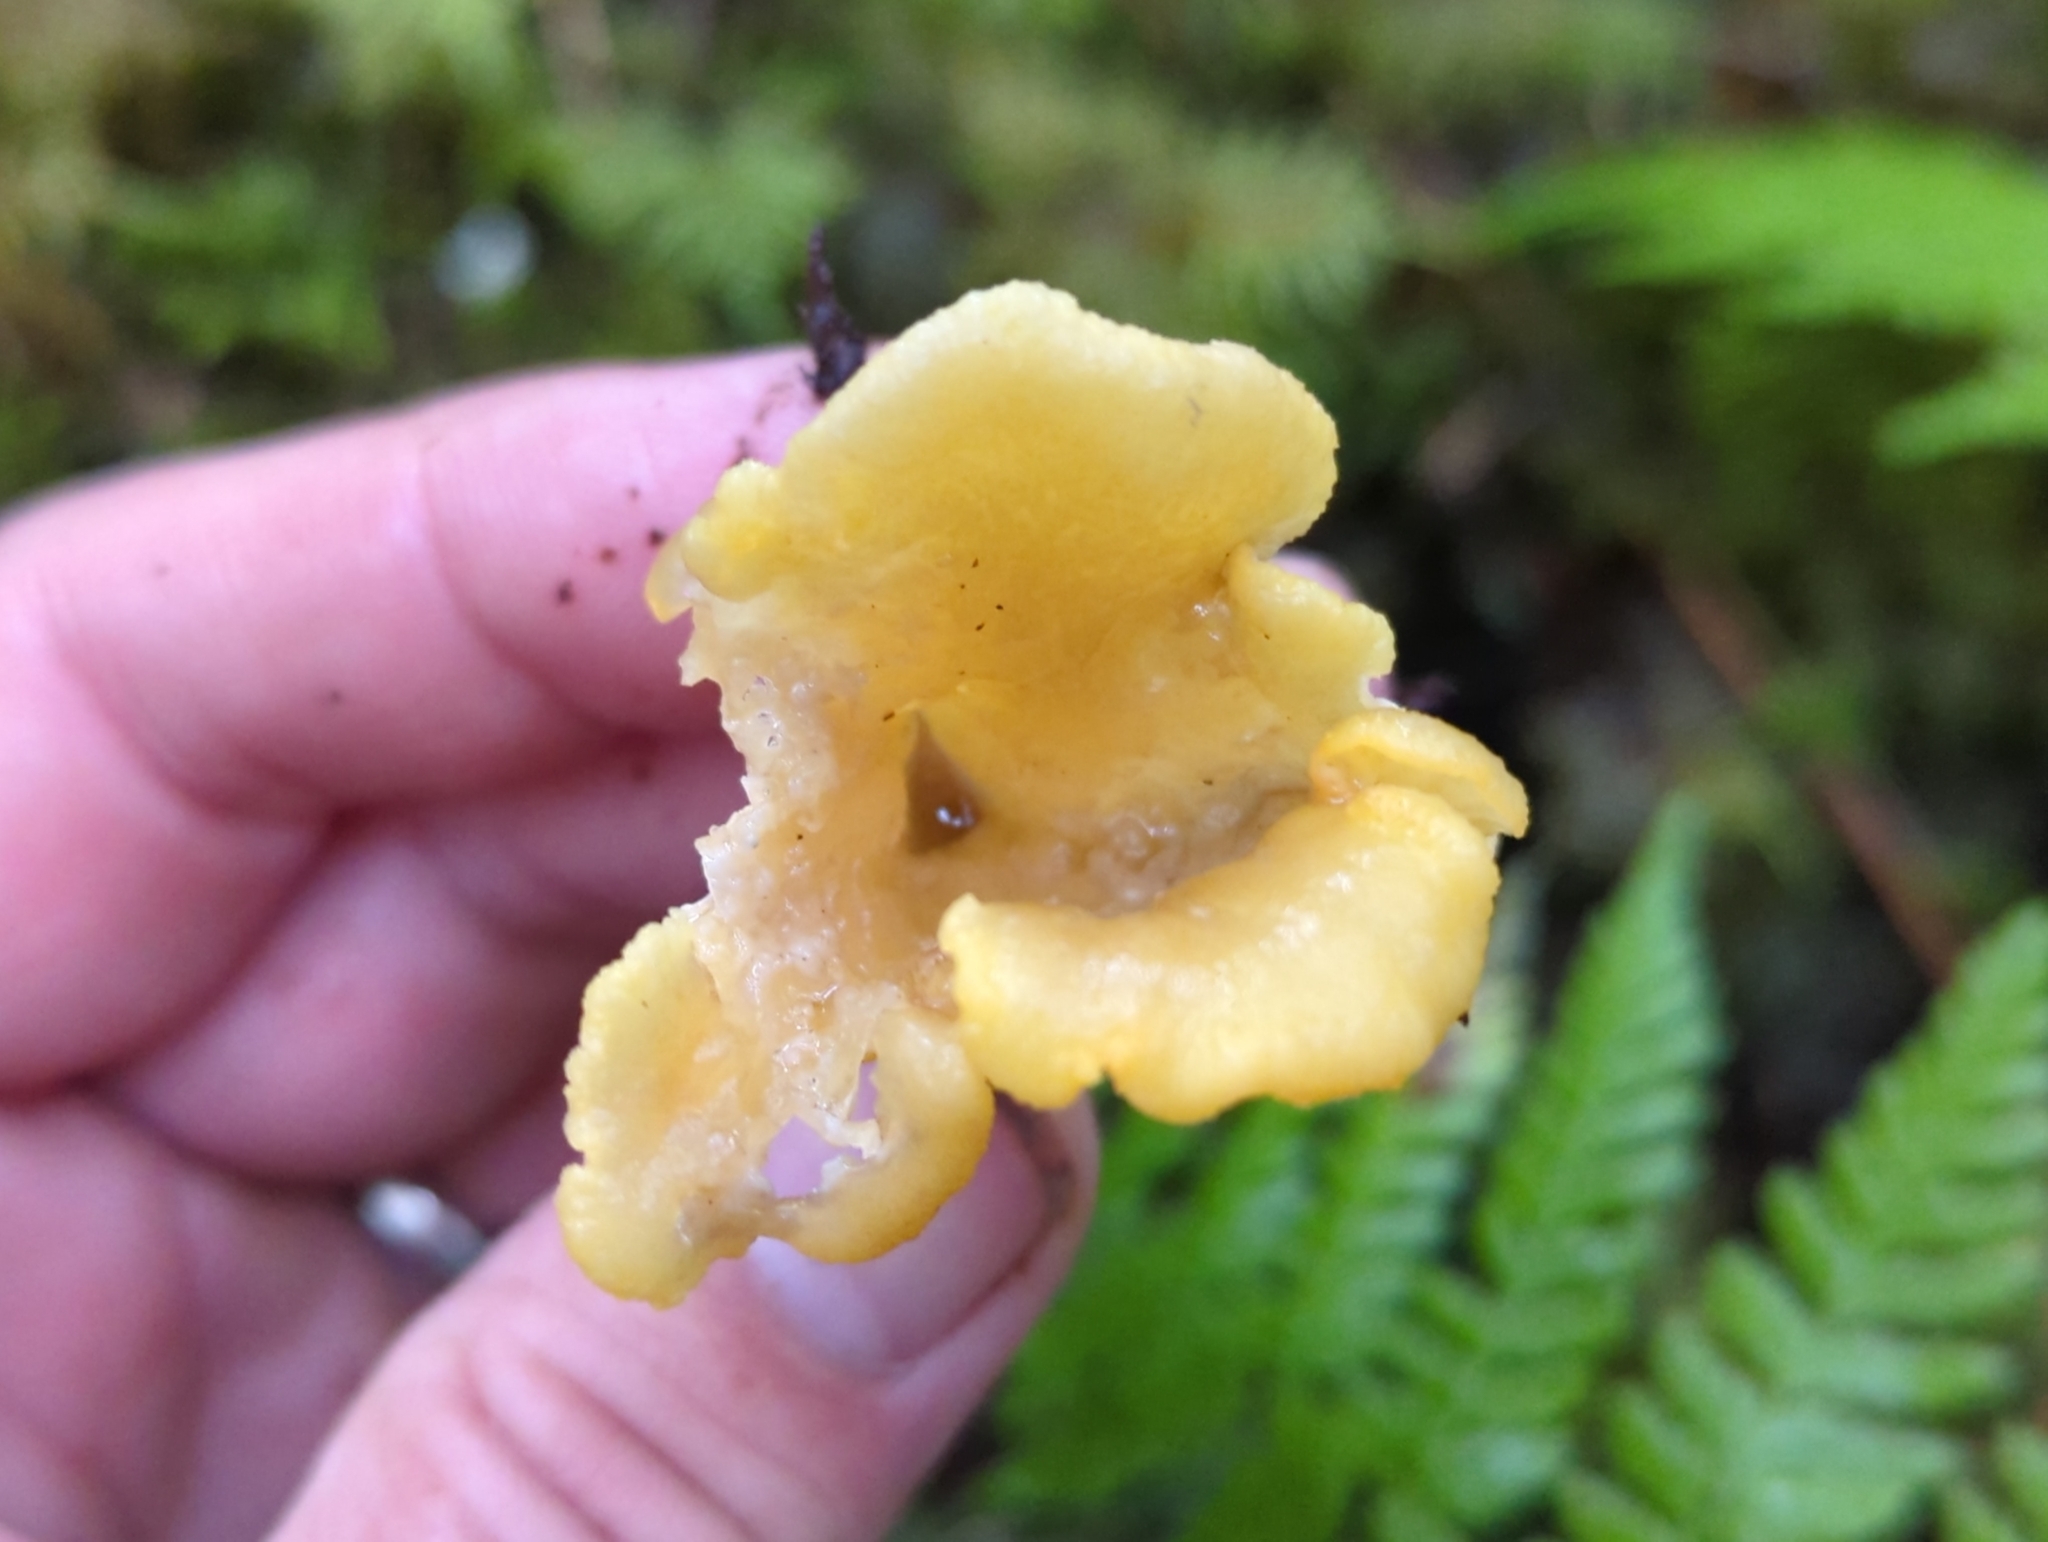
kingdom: Fungi
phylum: Basidiomycota
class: Agaricomycetes
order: Cantharellales
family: Hydnaceae
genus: Craterellus
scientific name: Craterellus tubaeformis
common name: Yellowfoot
